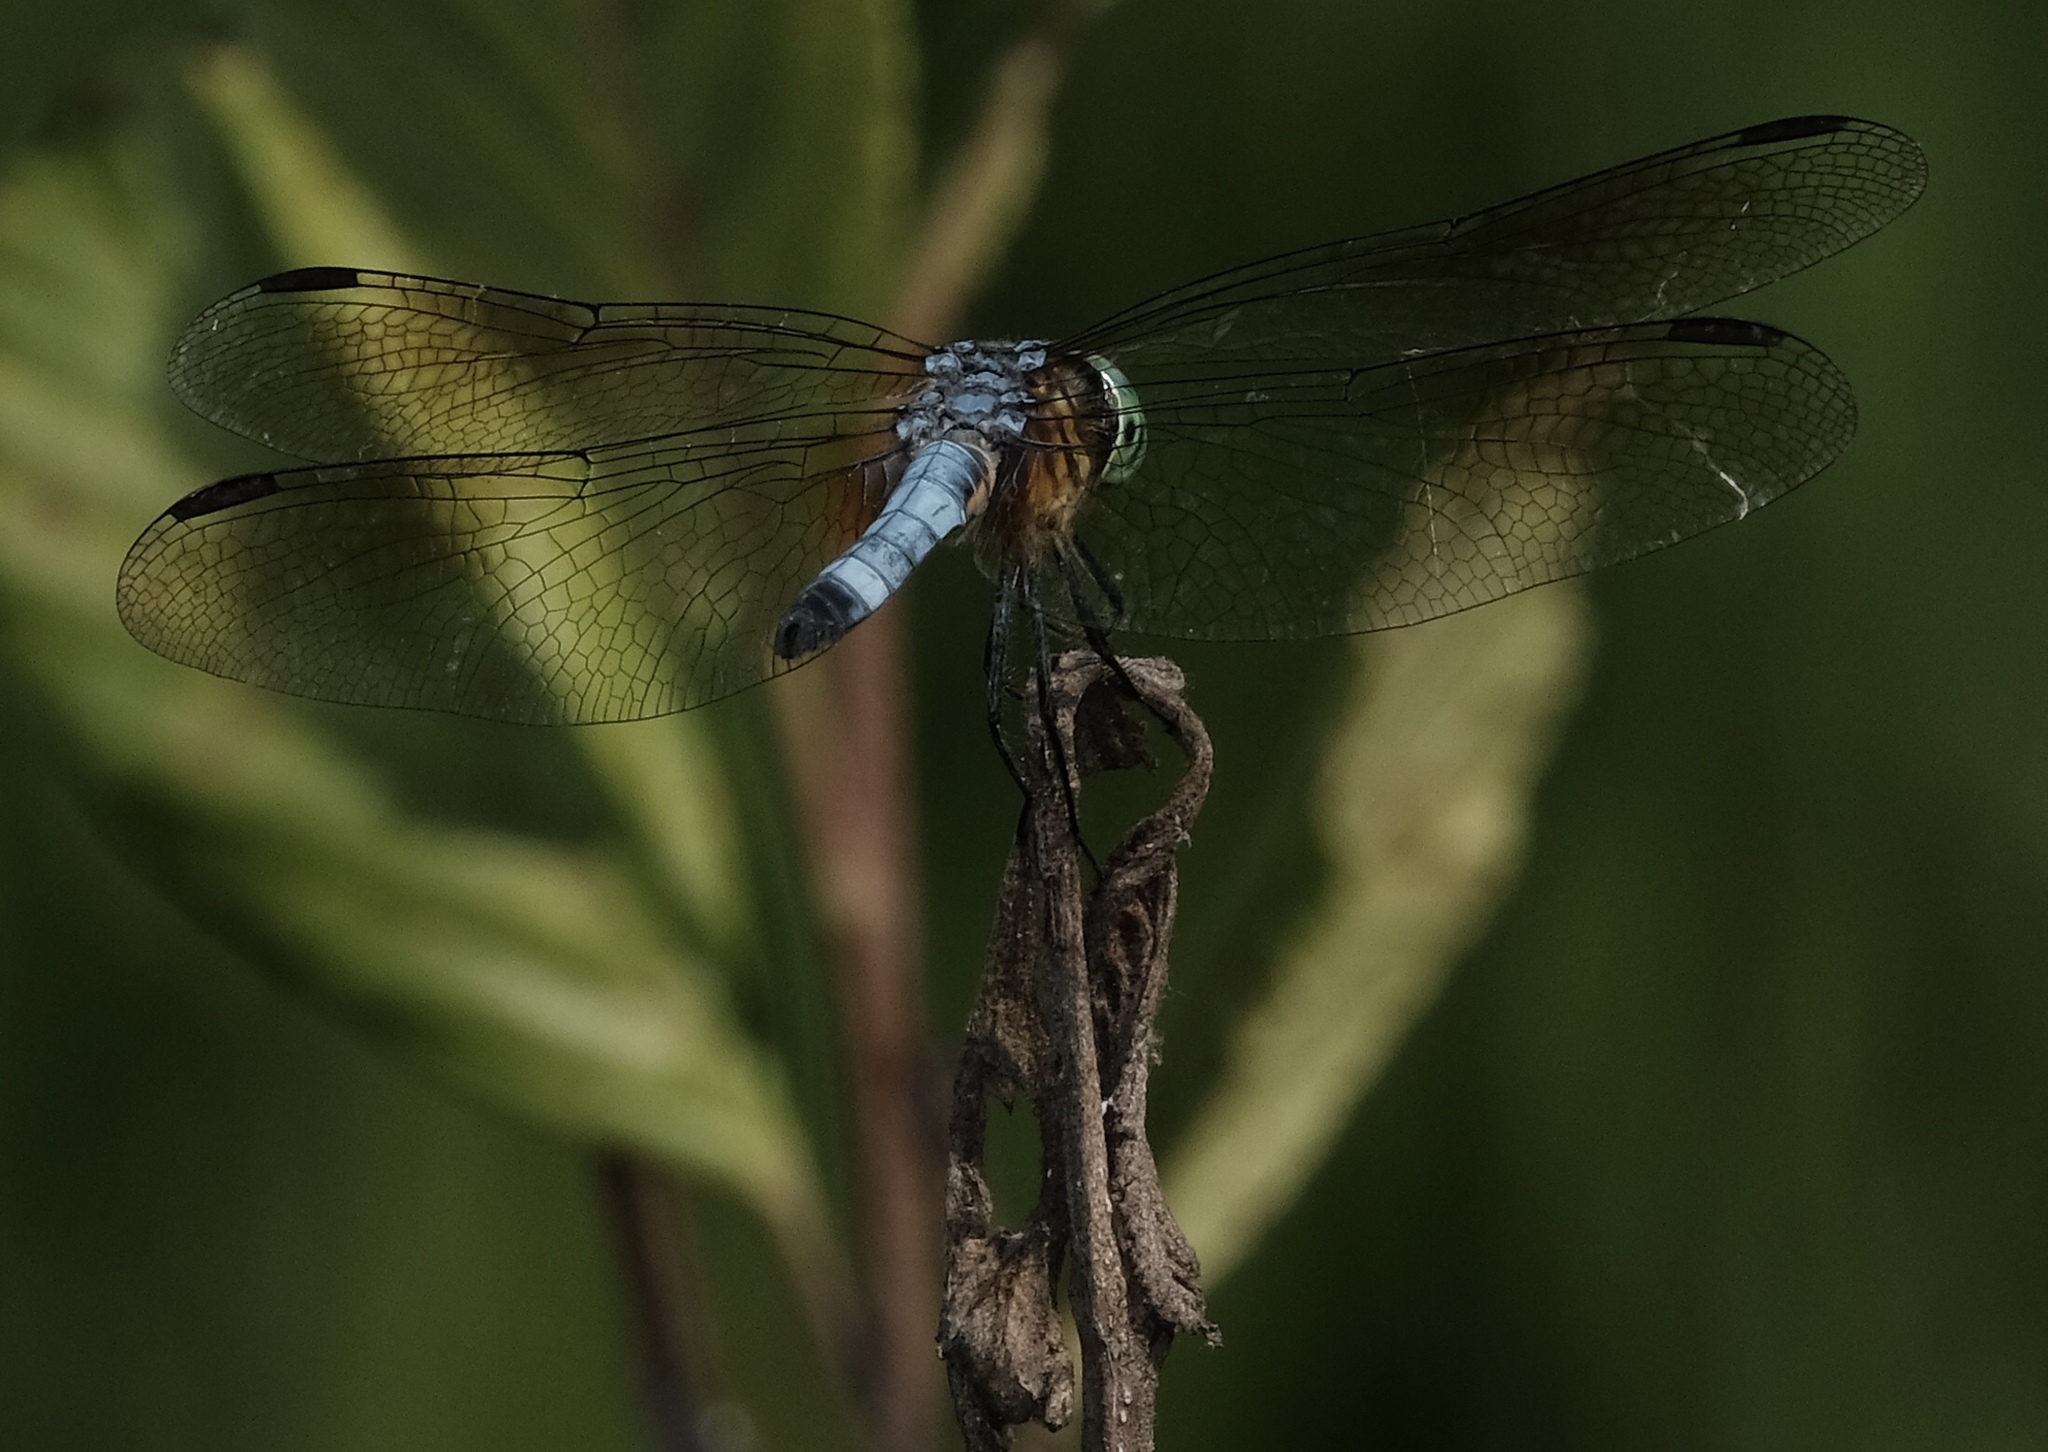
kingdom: Animalia
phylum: Arthropoda
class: Insecta
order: Odonata
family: Libellulidae
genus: Pachydiplax
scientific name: Pachydiplax longipennis
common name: Blue dasher
